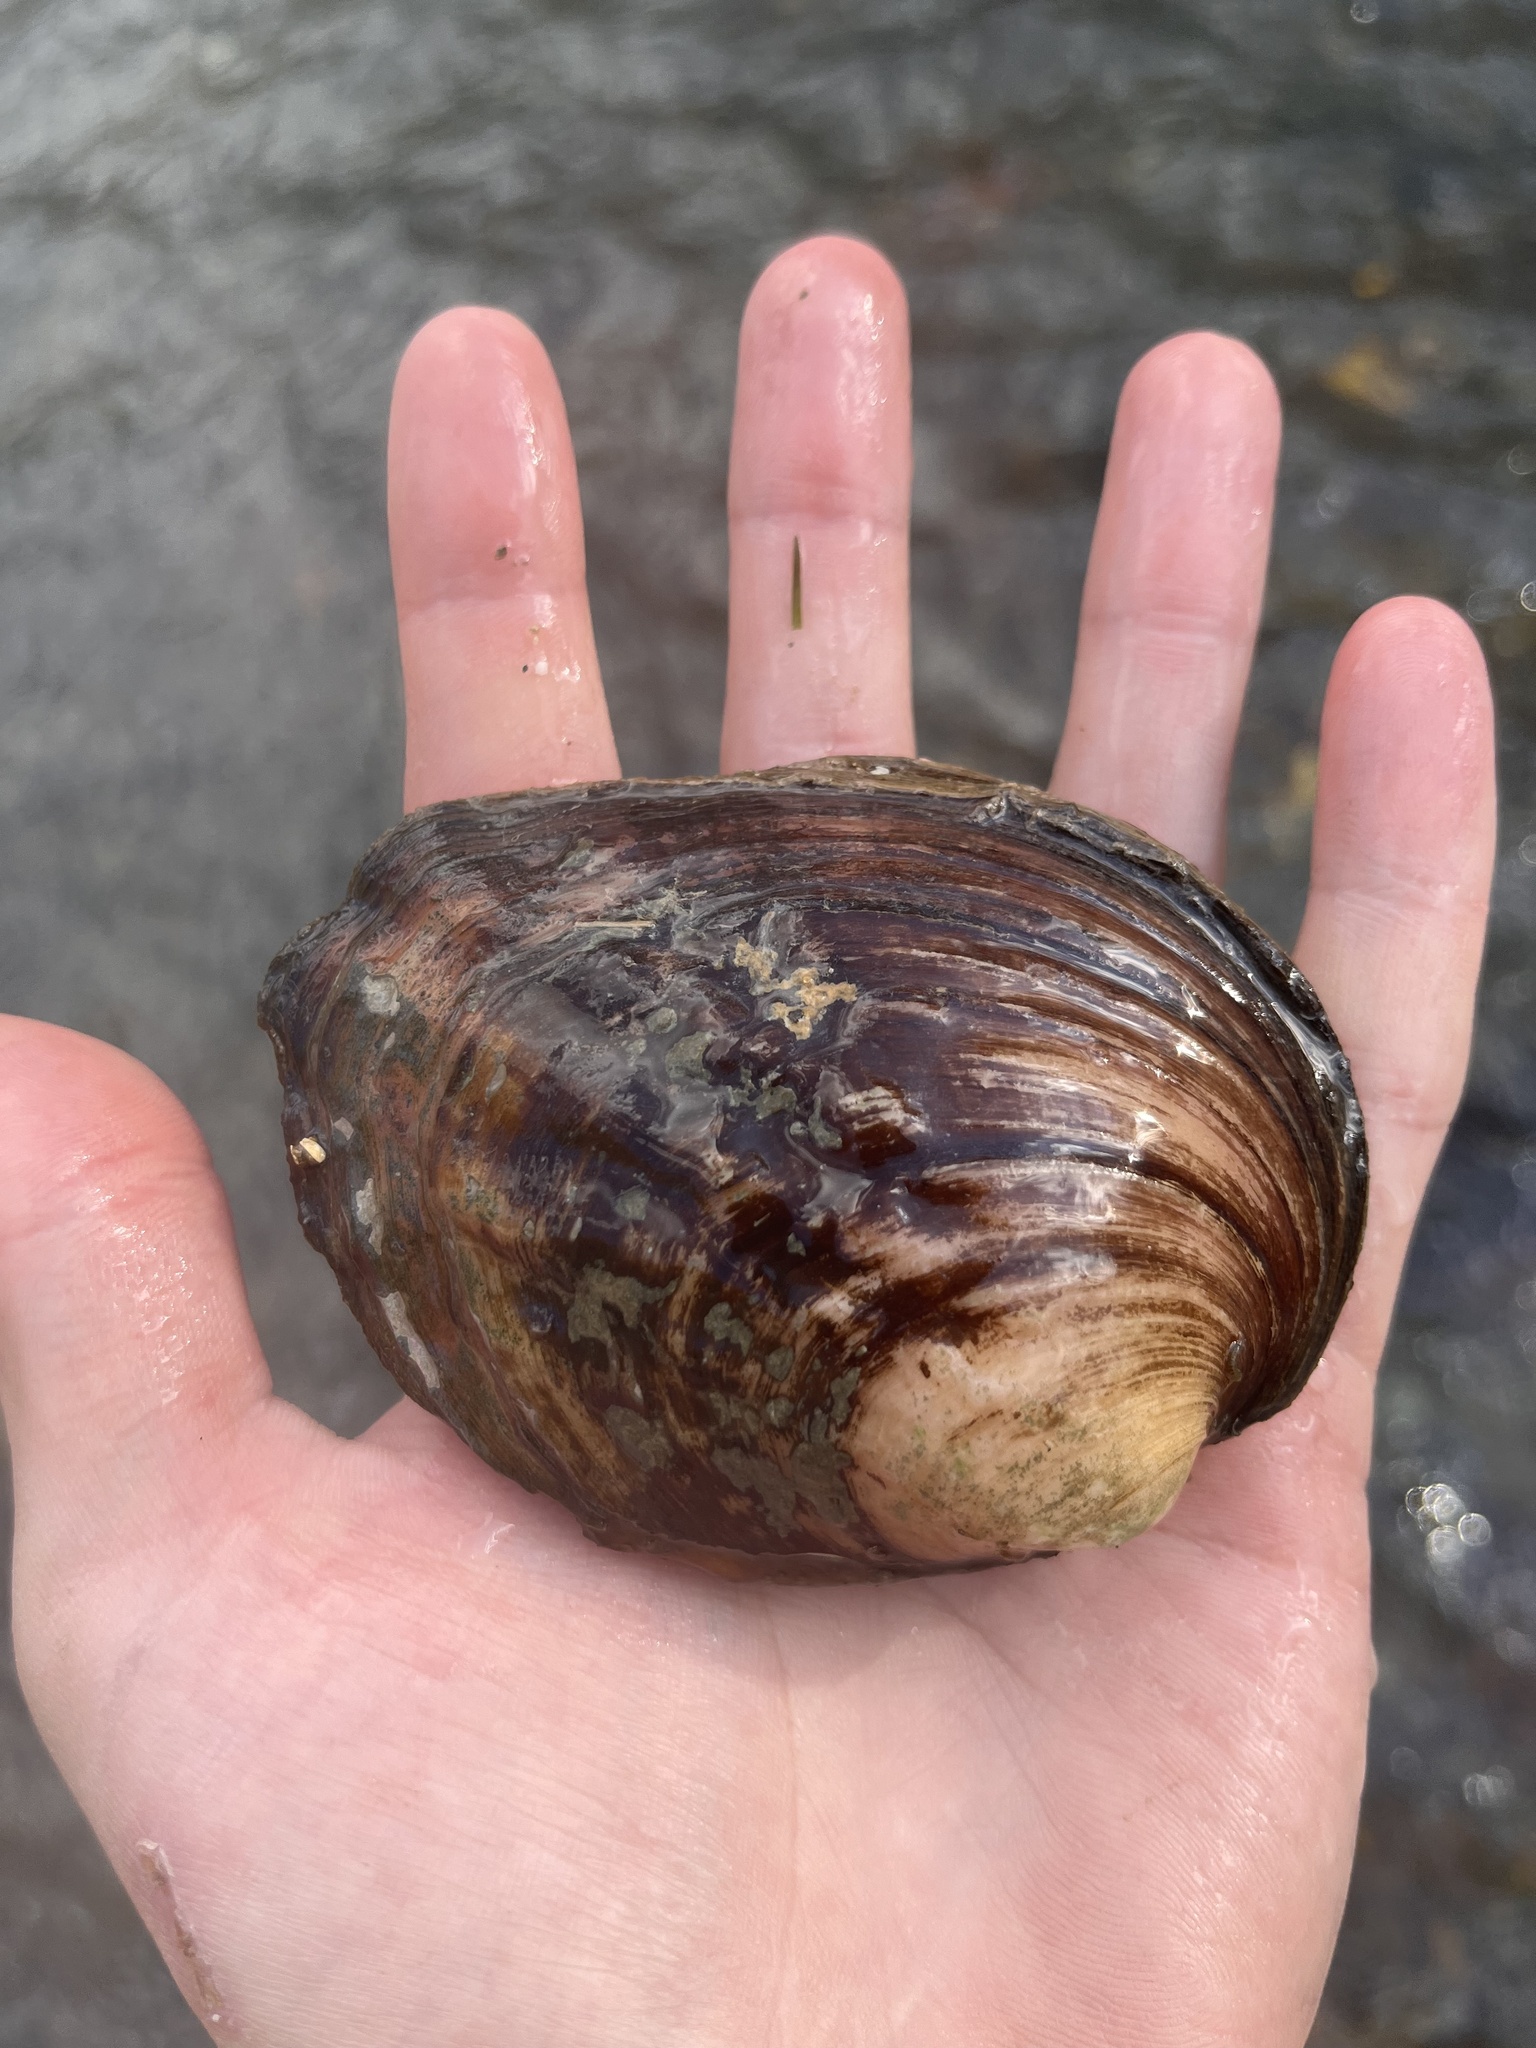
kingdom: Animalia
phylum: Mollusca
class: Bivalvia
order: Unionida
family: Unionidae
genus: Amblema
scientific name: Amblema plicata
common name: Threeridge
